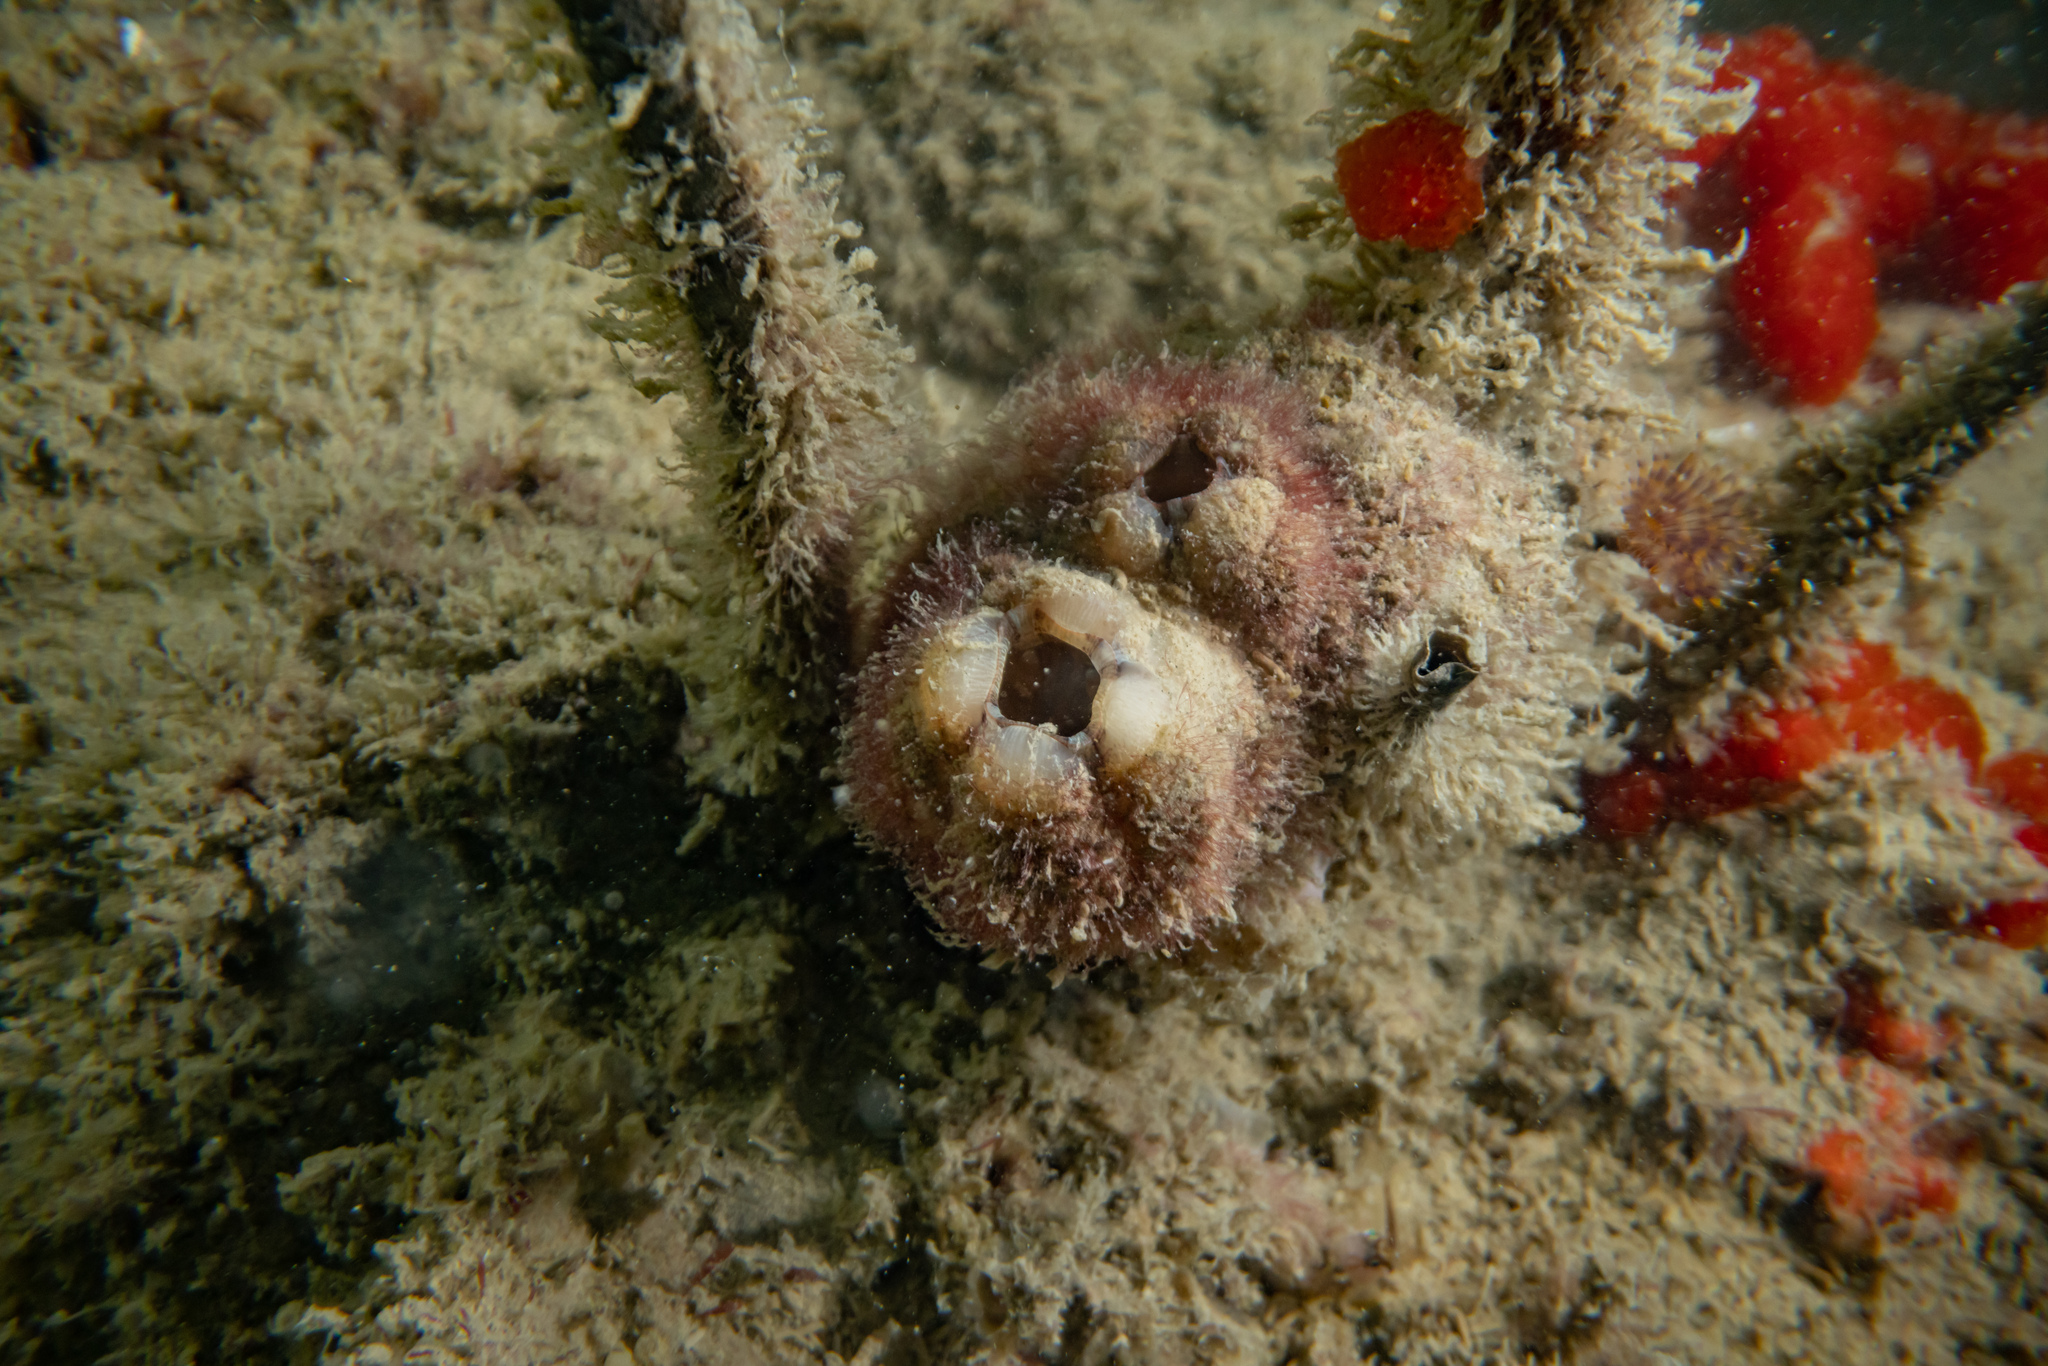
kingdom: Animalia
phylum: Chordata
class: Ascidiacea
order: Stolidobranchia
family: Styelidae
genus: Styela
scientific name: Styela plicata
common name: Pleated tunicate
